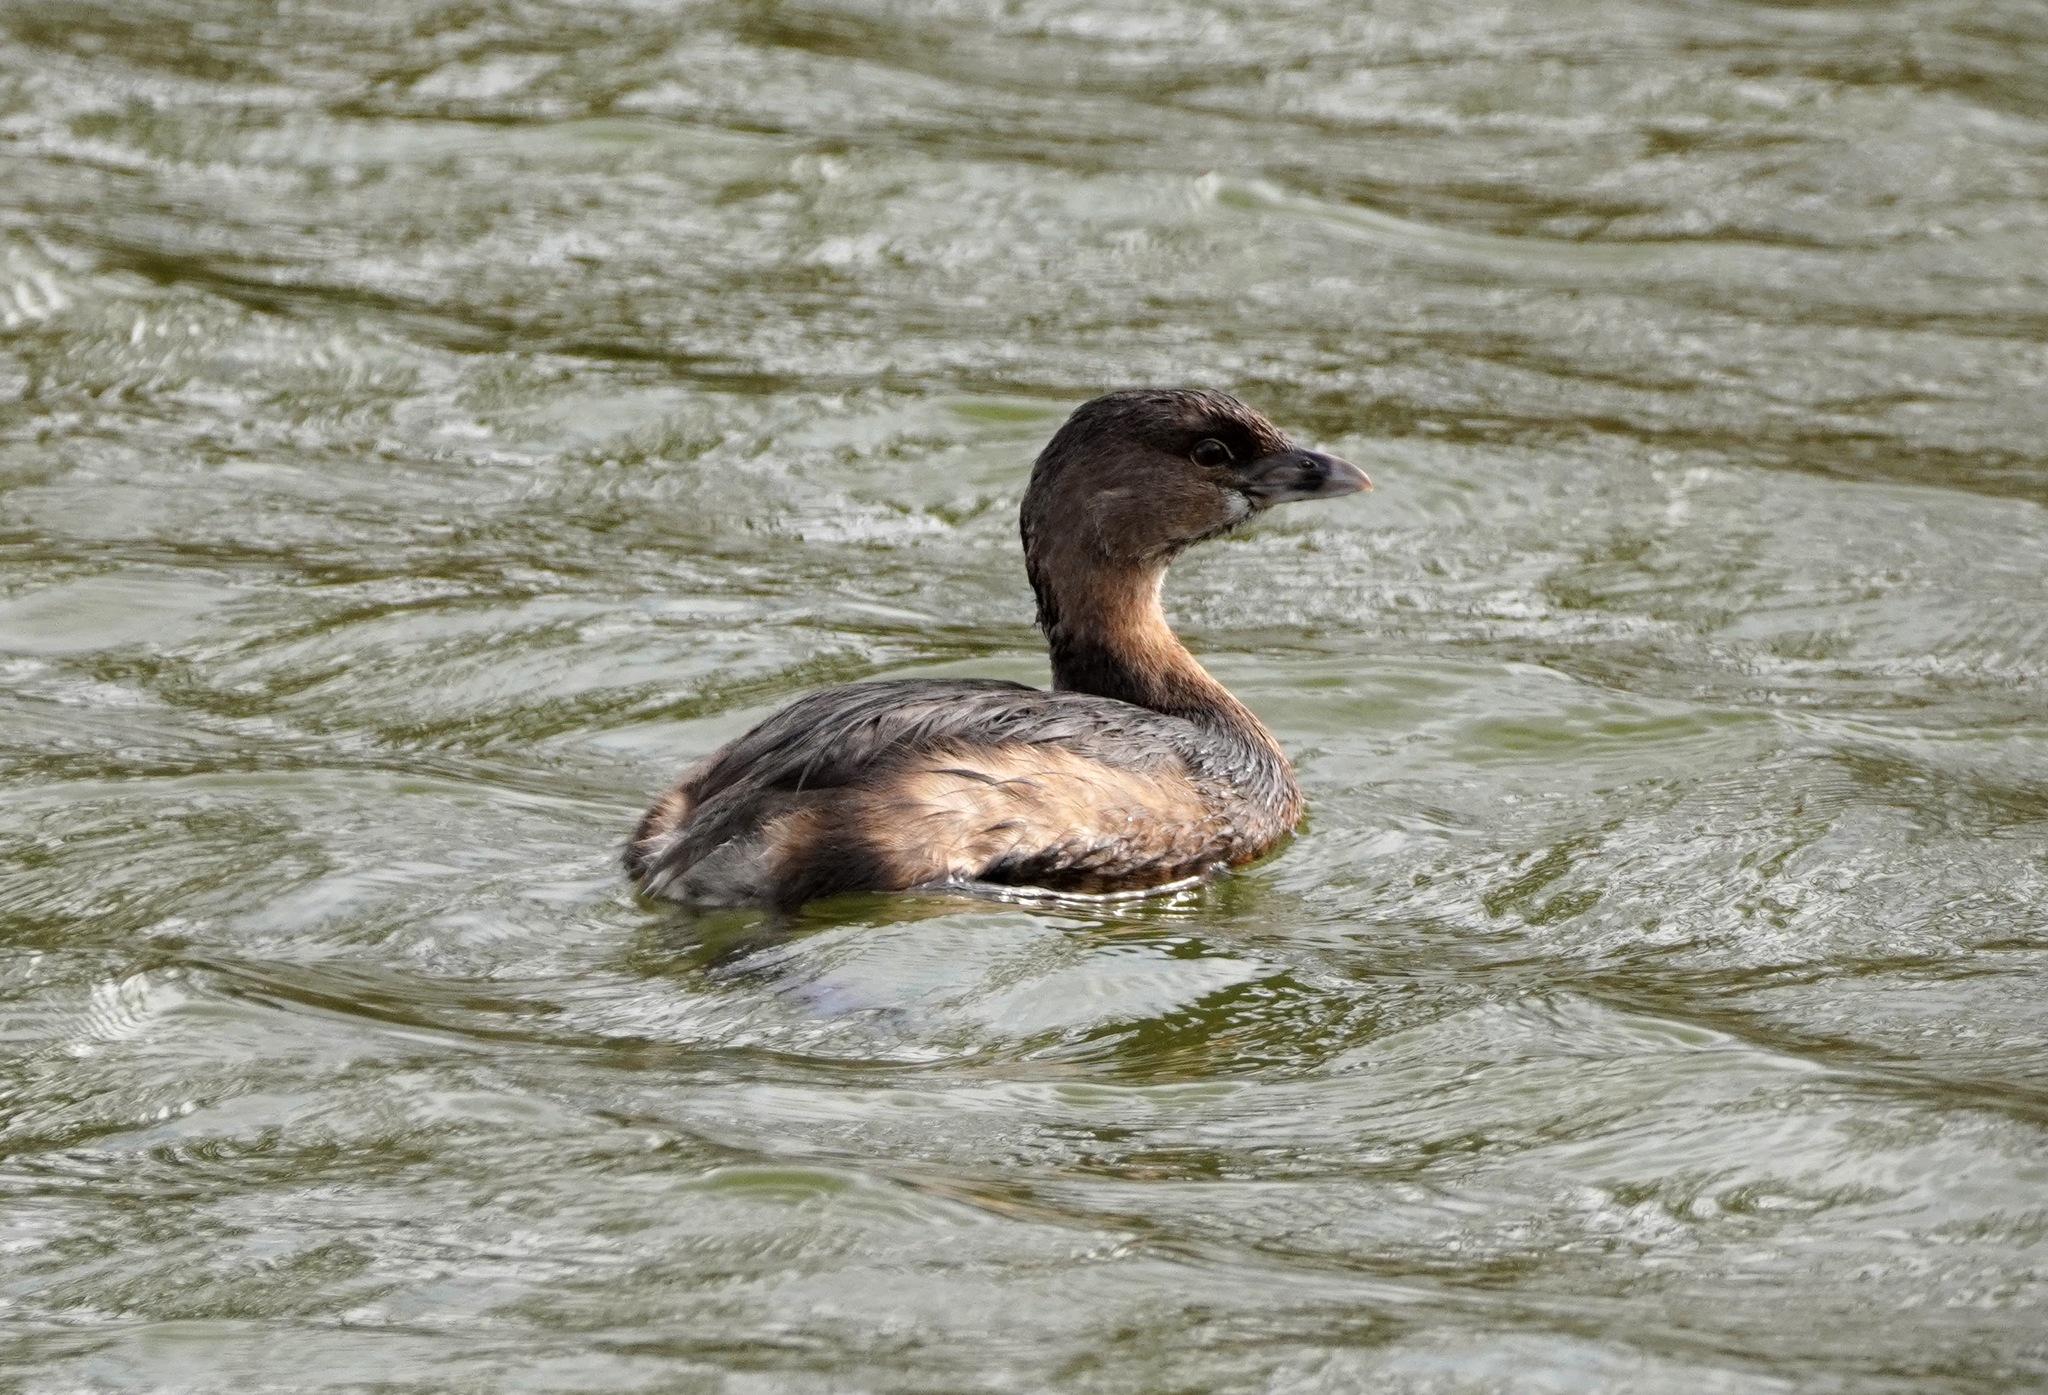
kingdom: Animalia
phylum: Chordata
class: Aves
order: Podicipediformes
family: Podicipedidae
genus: Podilymbus
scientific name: Podilymbus podiceps
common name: Pied-billed grebe
